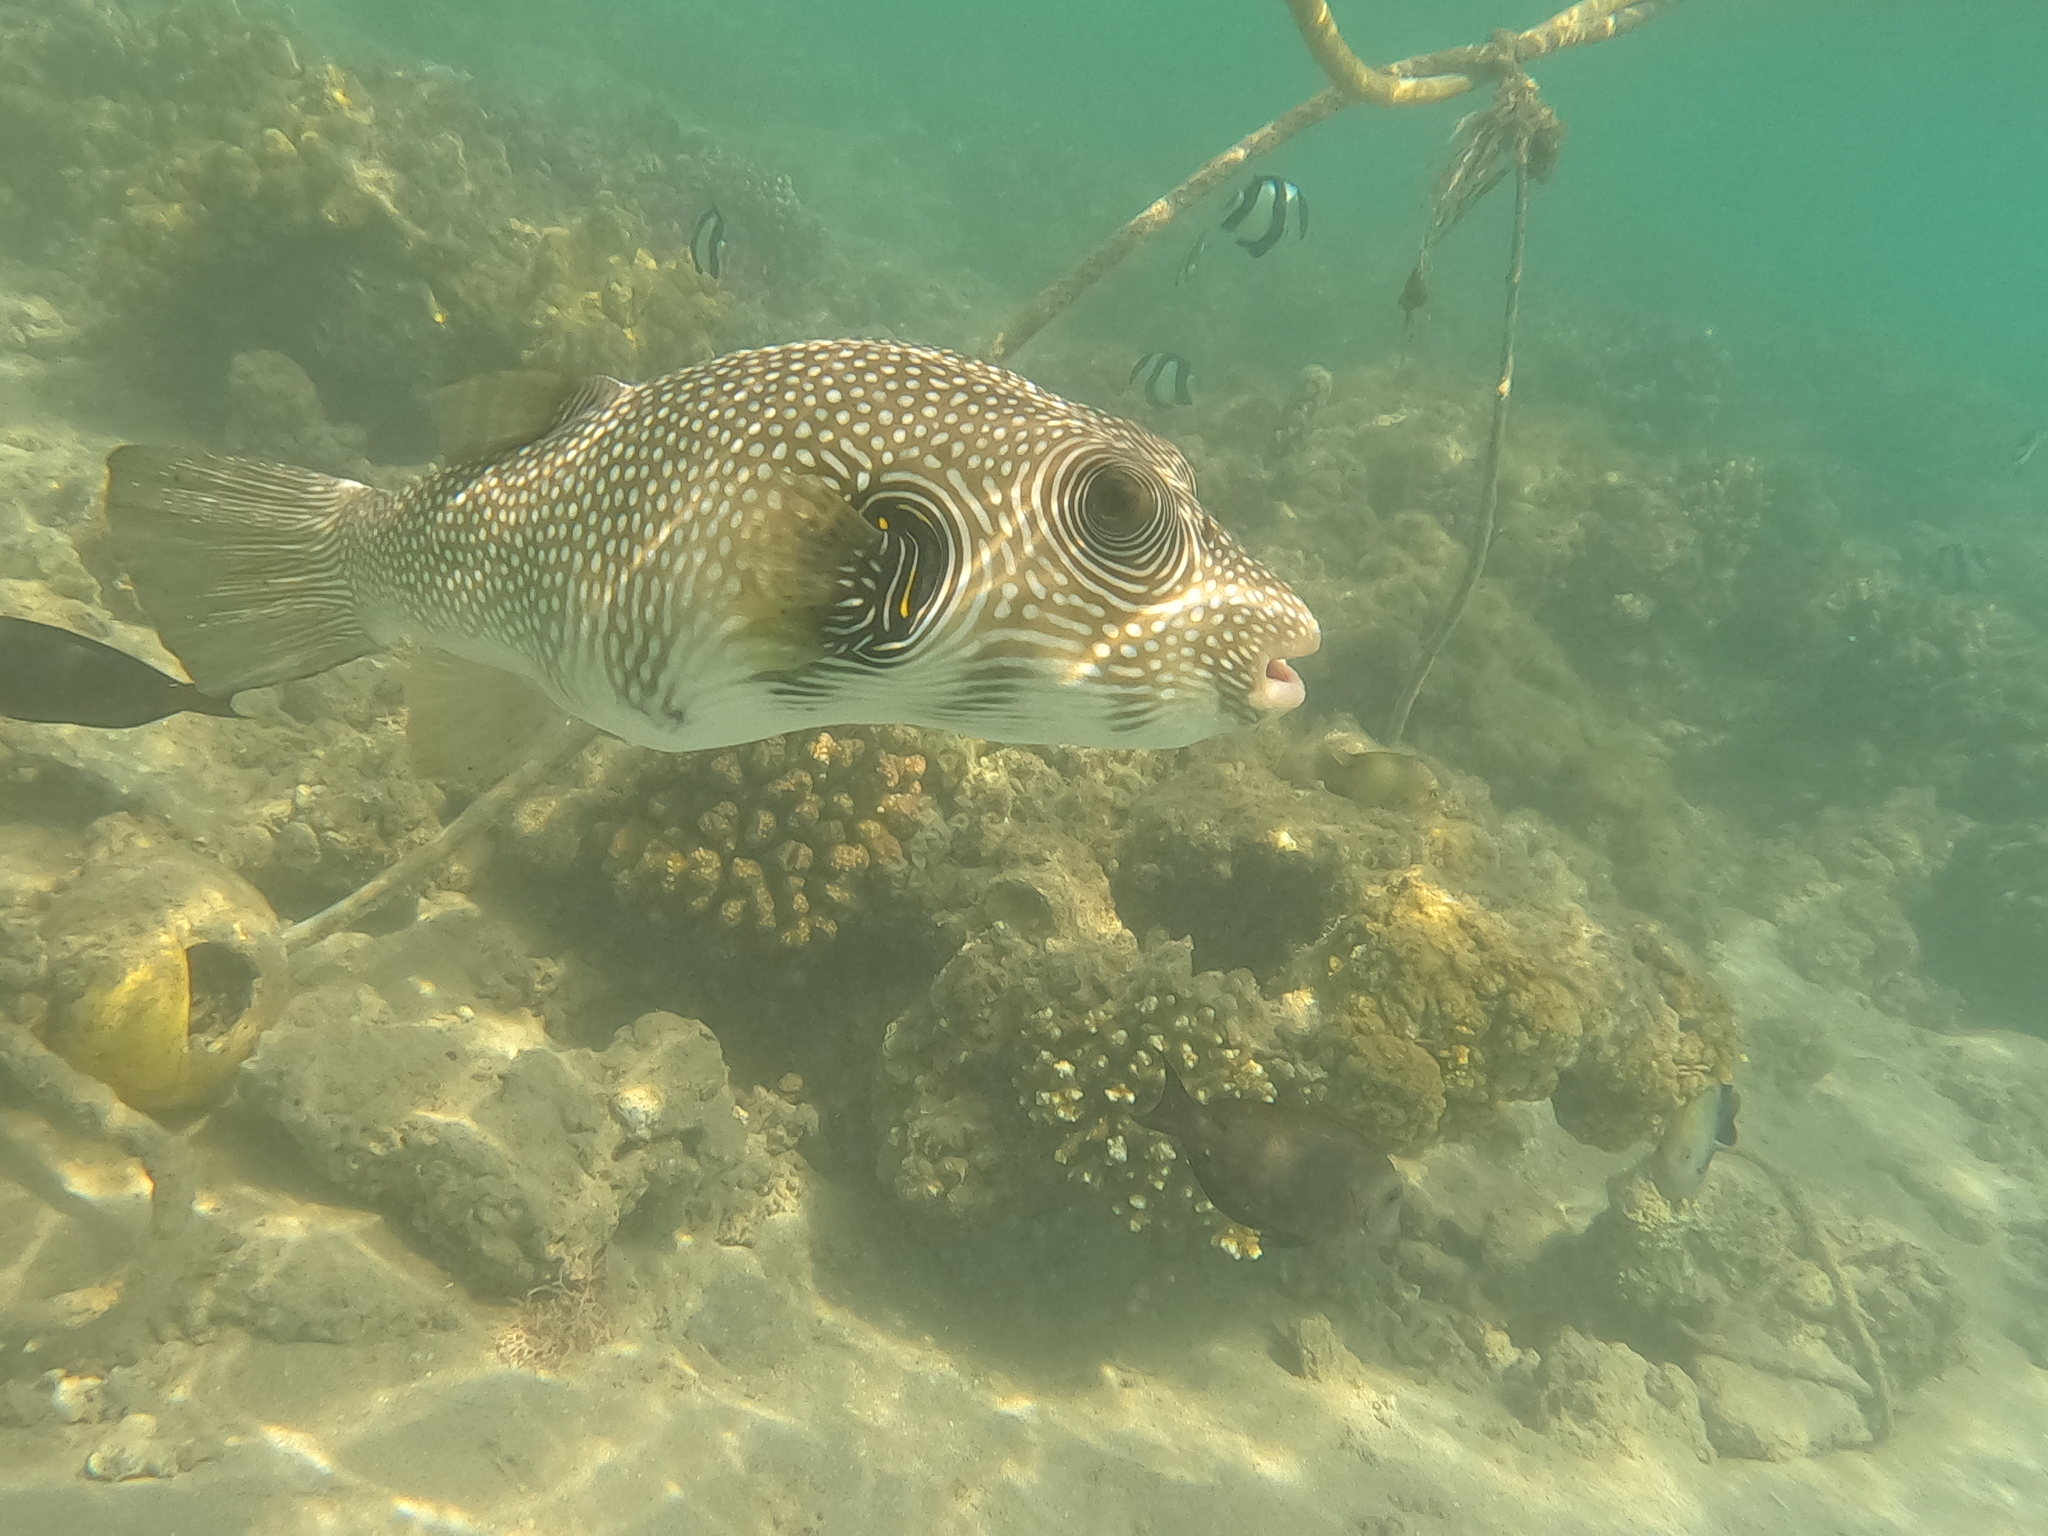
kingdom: Animalia
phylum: Chordata
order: Tetraodontiformes
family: Tetraodontidae
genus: Arothron
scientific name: Arothron hispidus
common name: Stripebelly puffer
